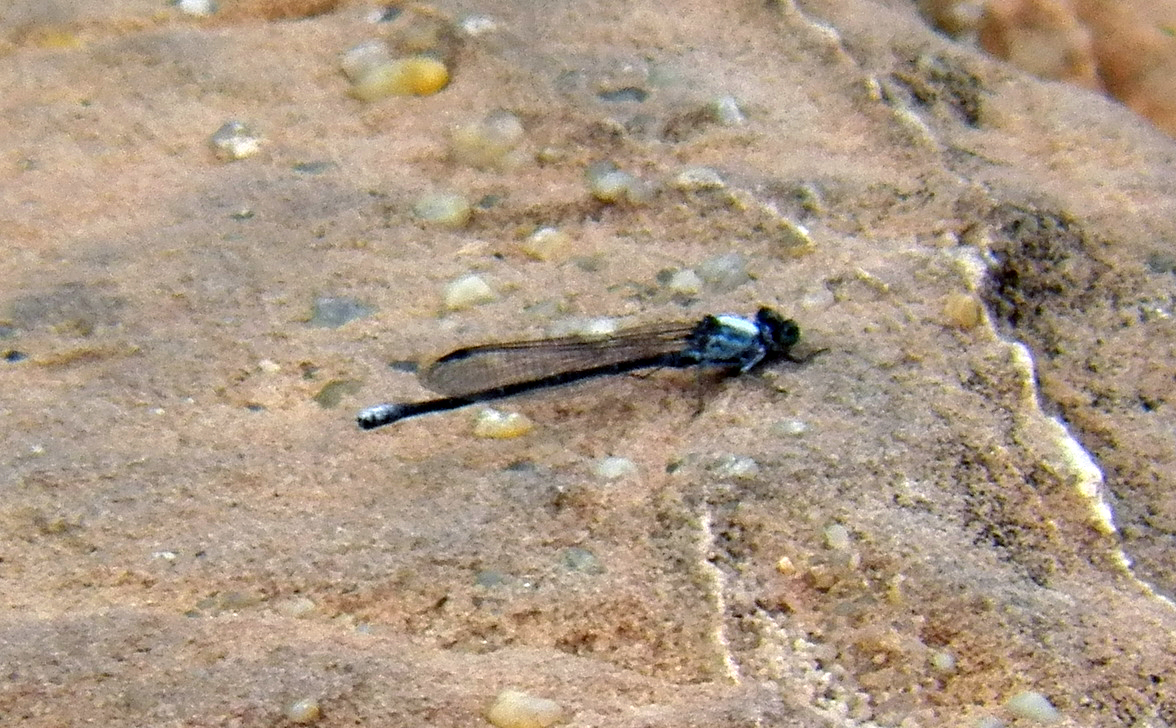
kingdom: Animalia
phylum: Arthropoda
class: Insecta
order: Odonata
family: Coenagrionidae
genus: Argia
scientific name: Argia moesta
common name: Powdered dancer
